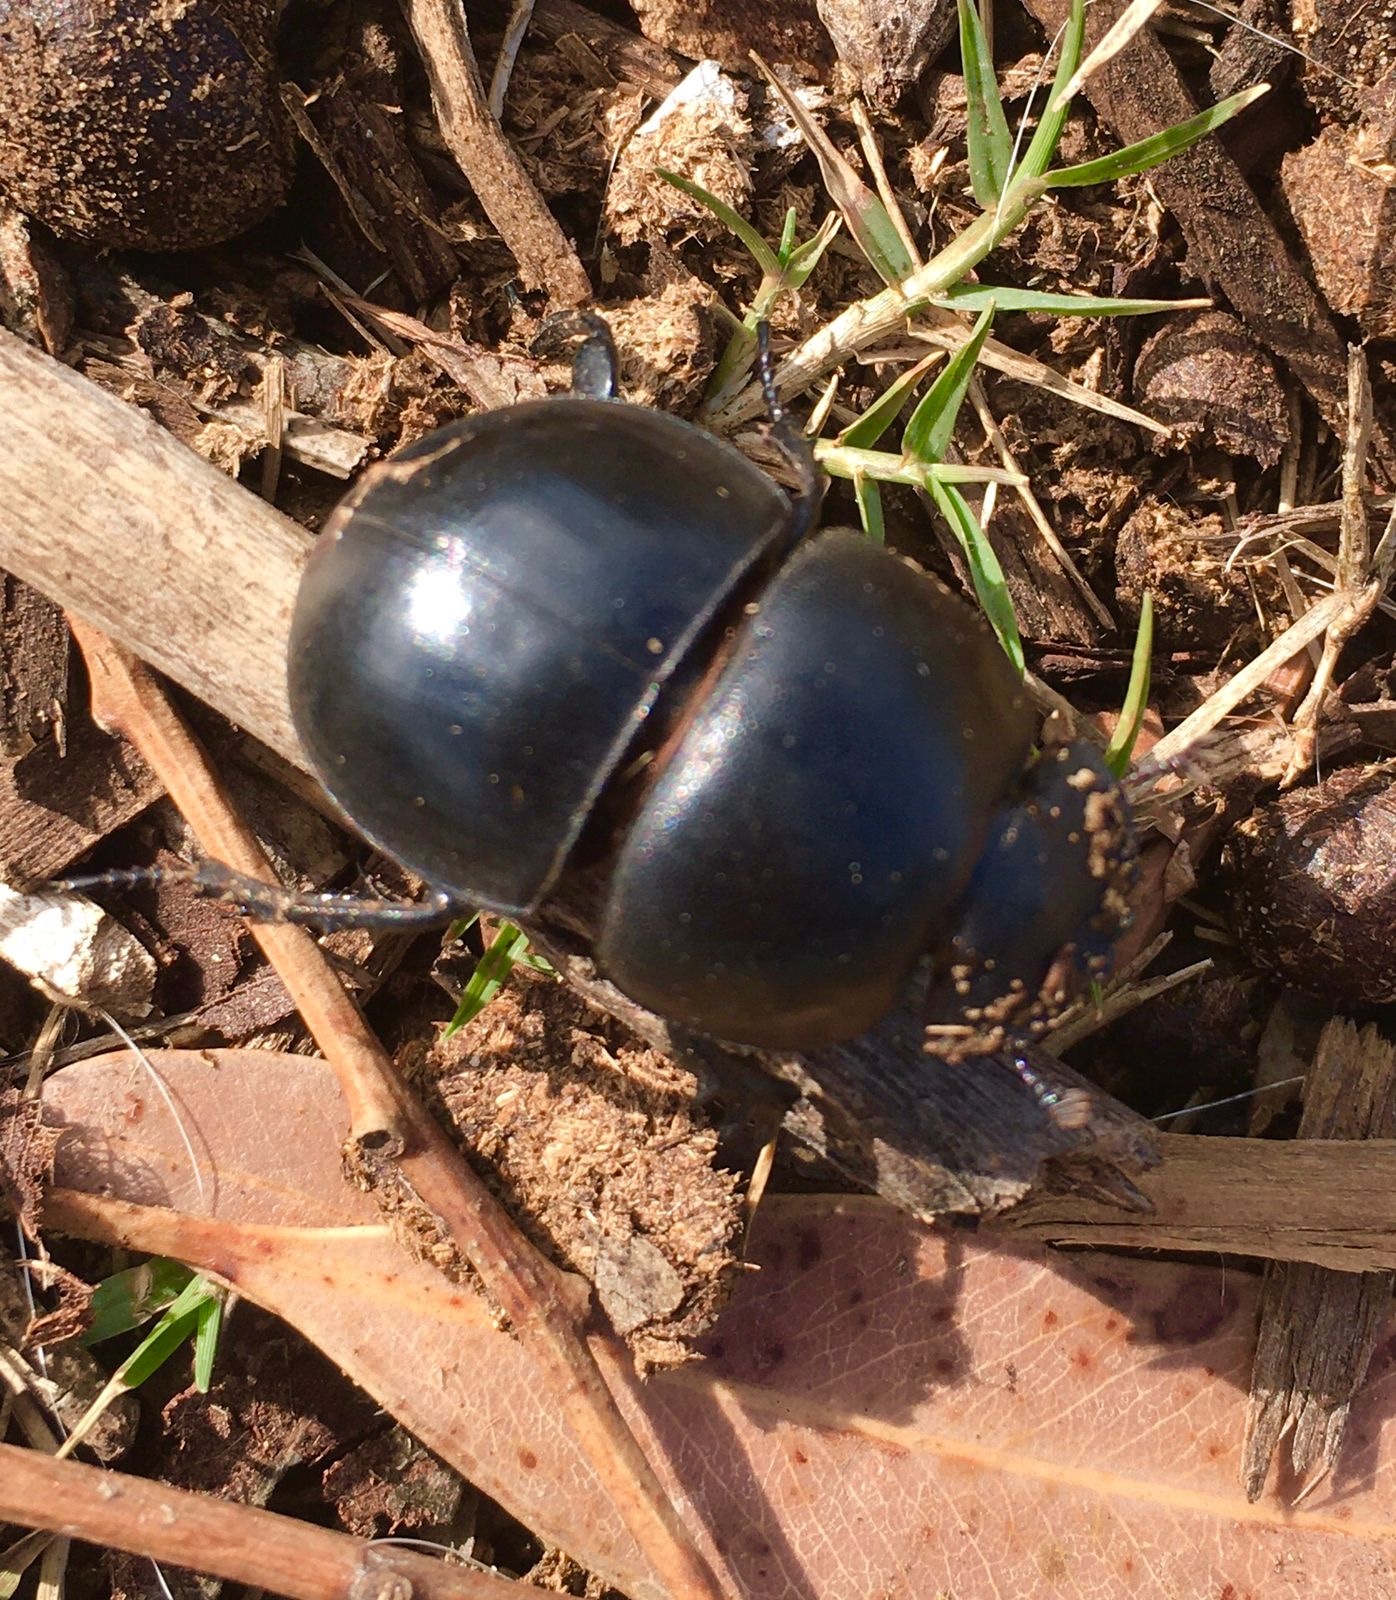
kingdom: Animalia
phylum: Arthropoda
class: Insecta
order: Coleoptera
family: Scarabaeidae
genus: Circellium
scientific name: Circellium bacchus
